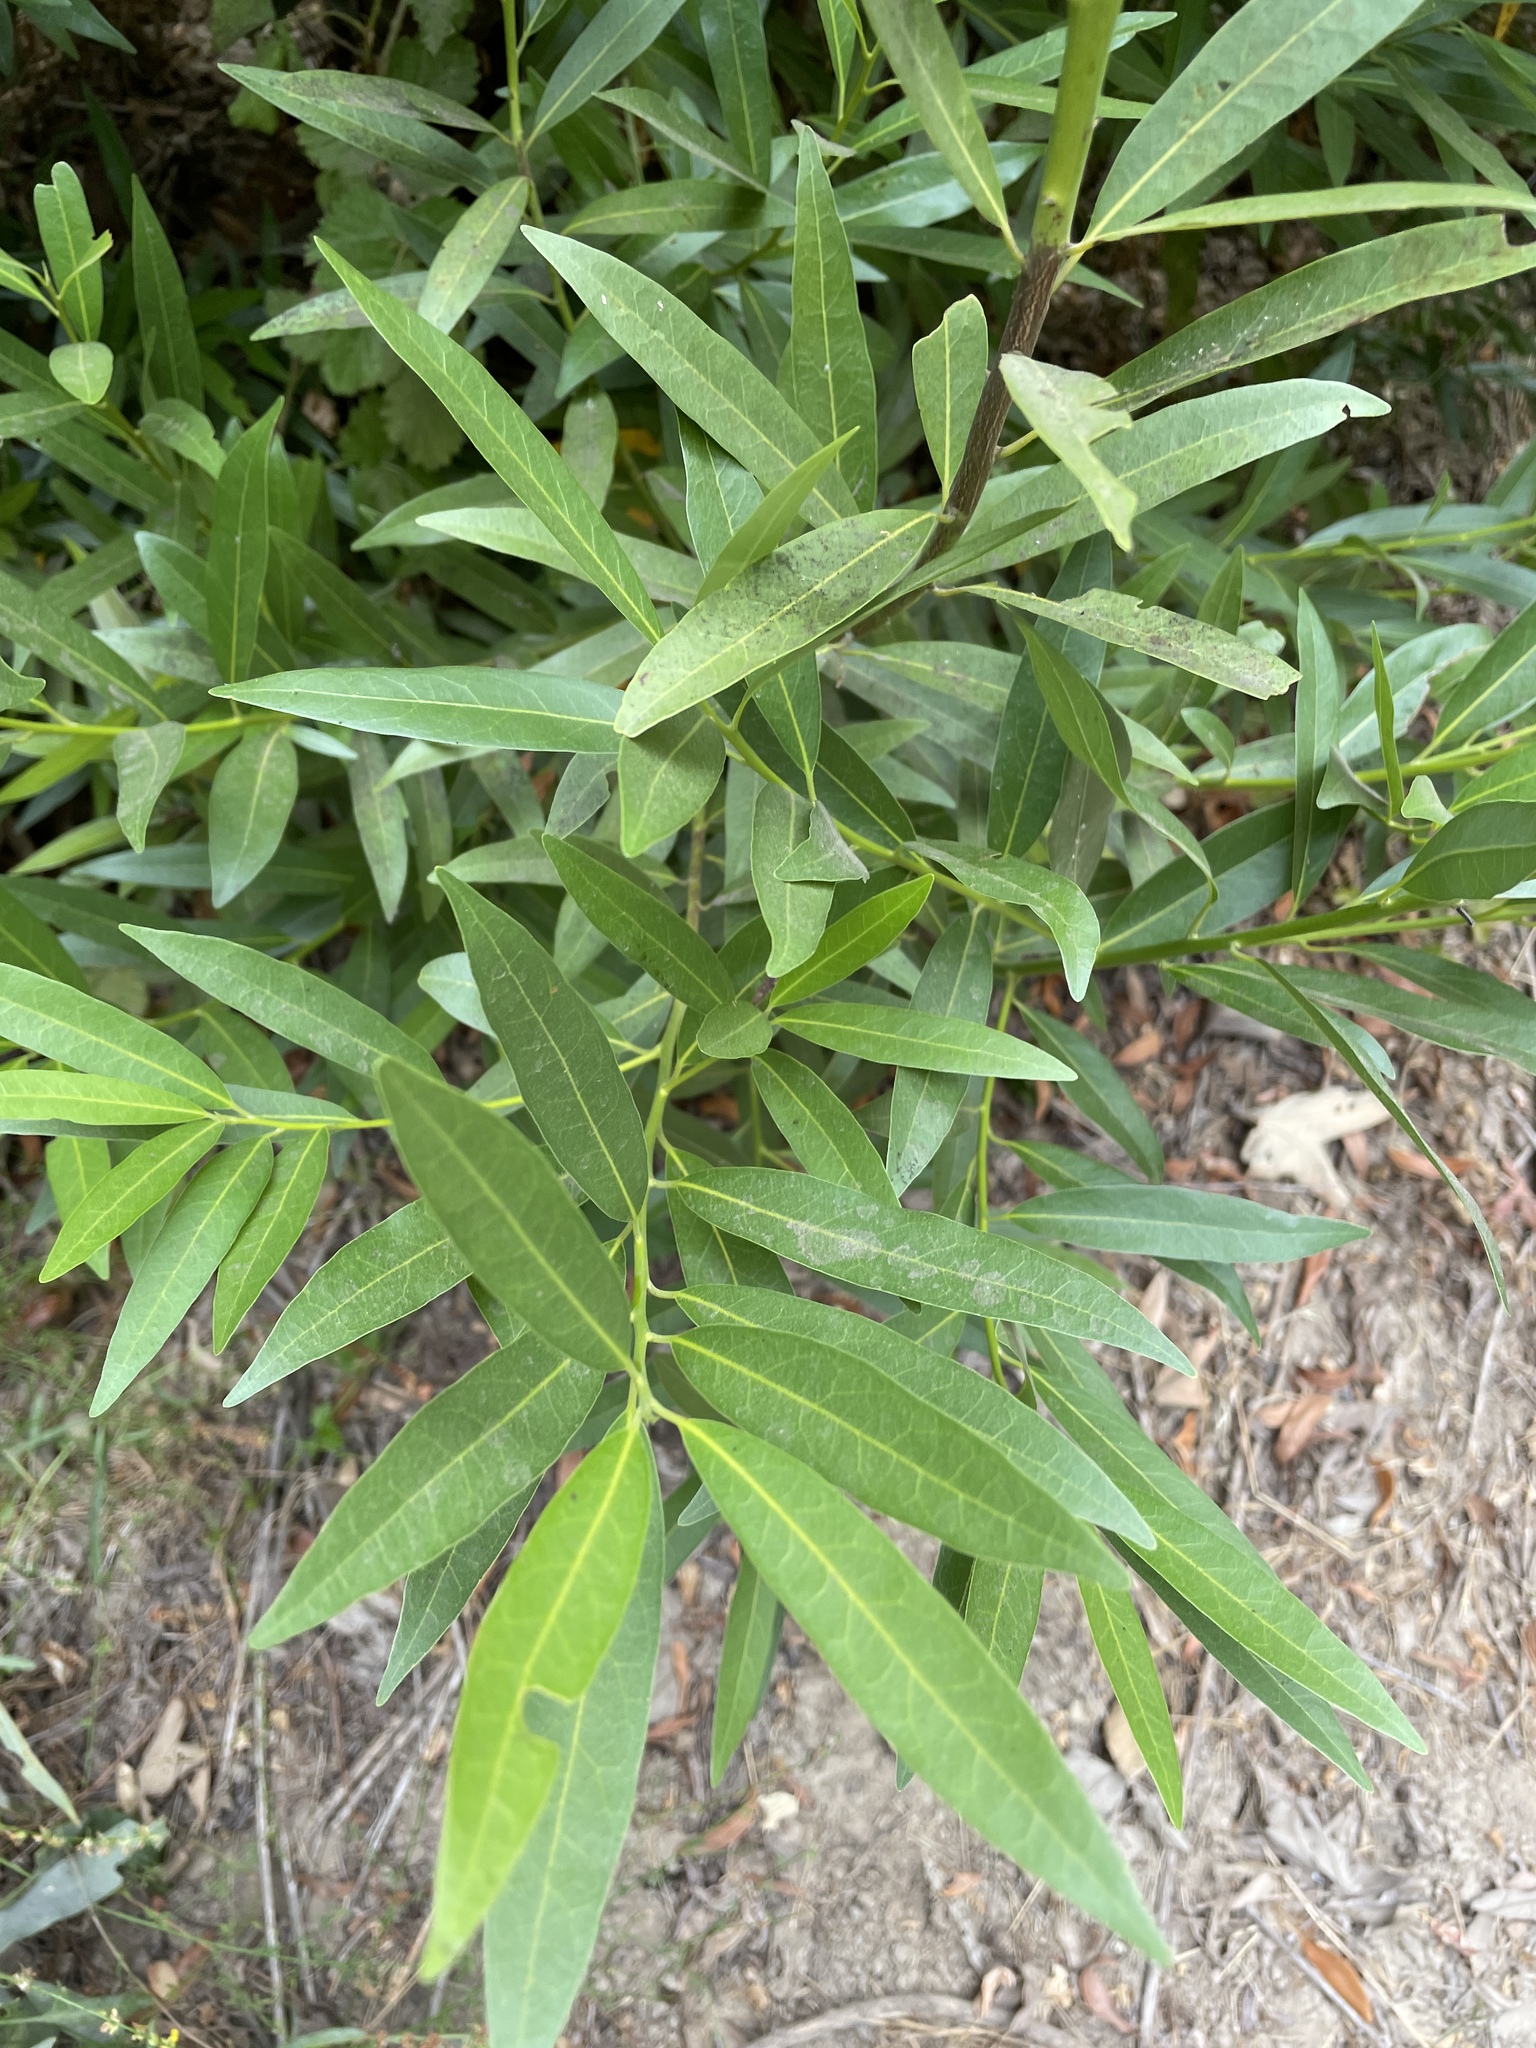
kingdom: Plantae
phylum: Tracheophyta
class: Magnoliopsida
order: Laurales
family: Lauraceae
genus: Umbellularia
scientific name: Umbellularia californica
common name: California bay
